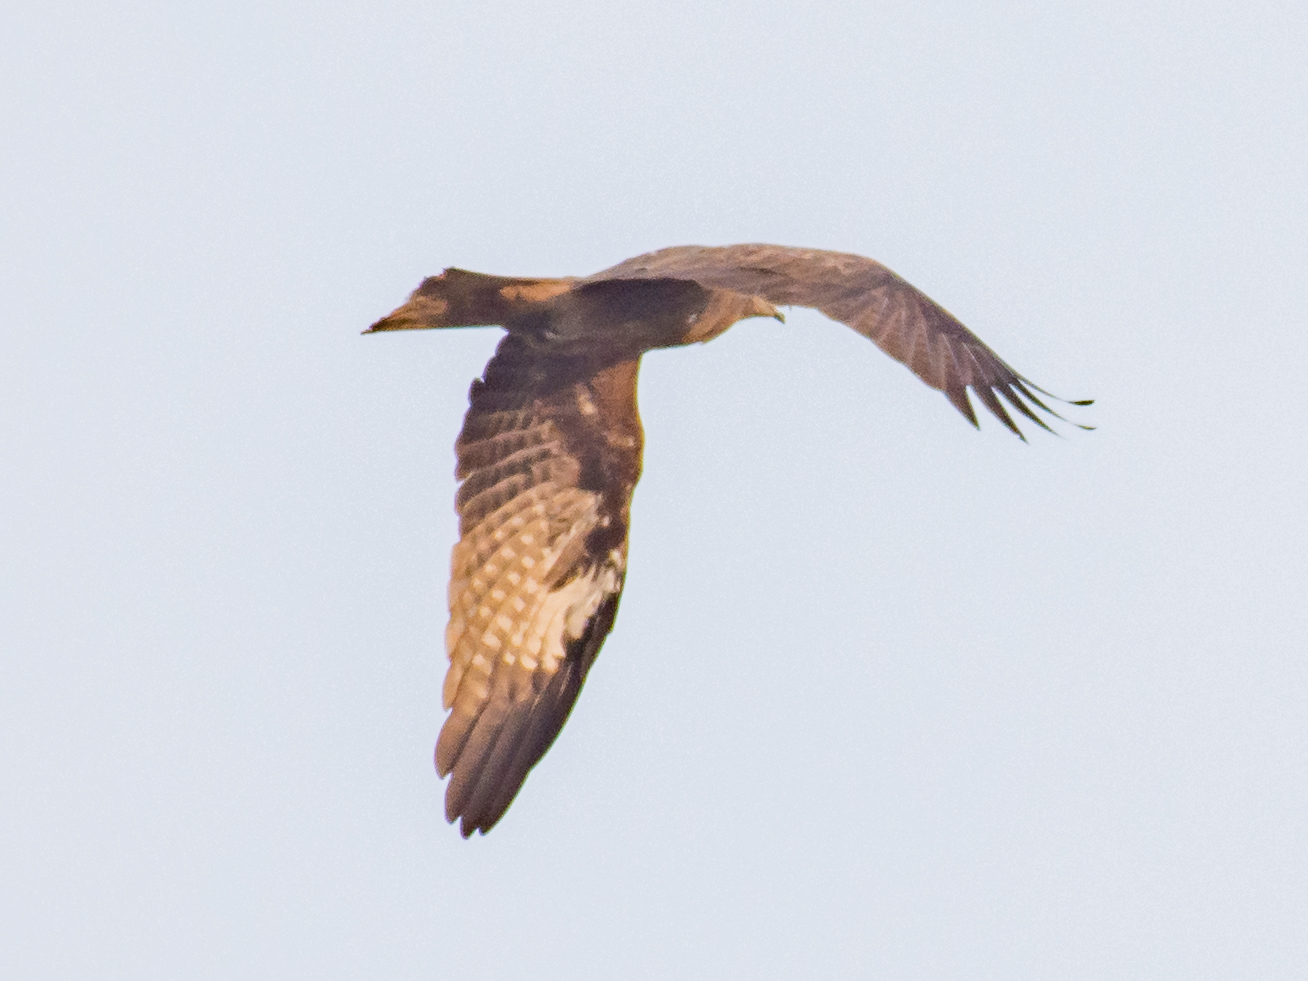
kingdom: Animalia
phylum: Chordata
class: Aves
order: Accipitriformes
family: Accipitridae
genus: Milvus
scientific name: Milvus migrans
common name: Black kite
